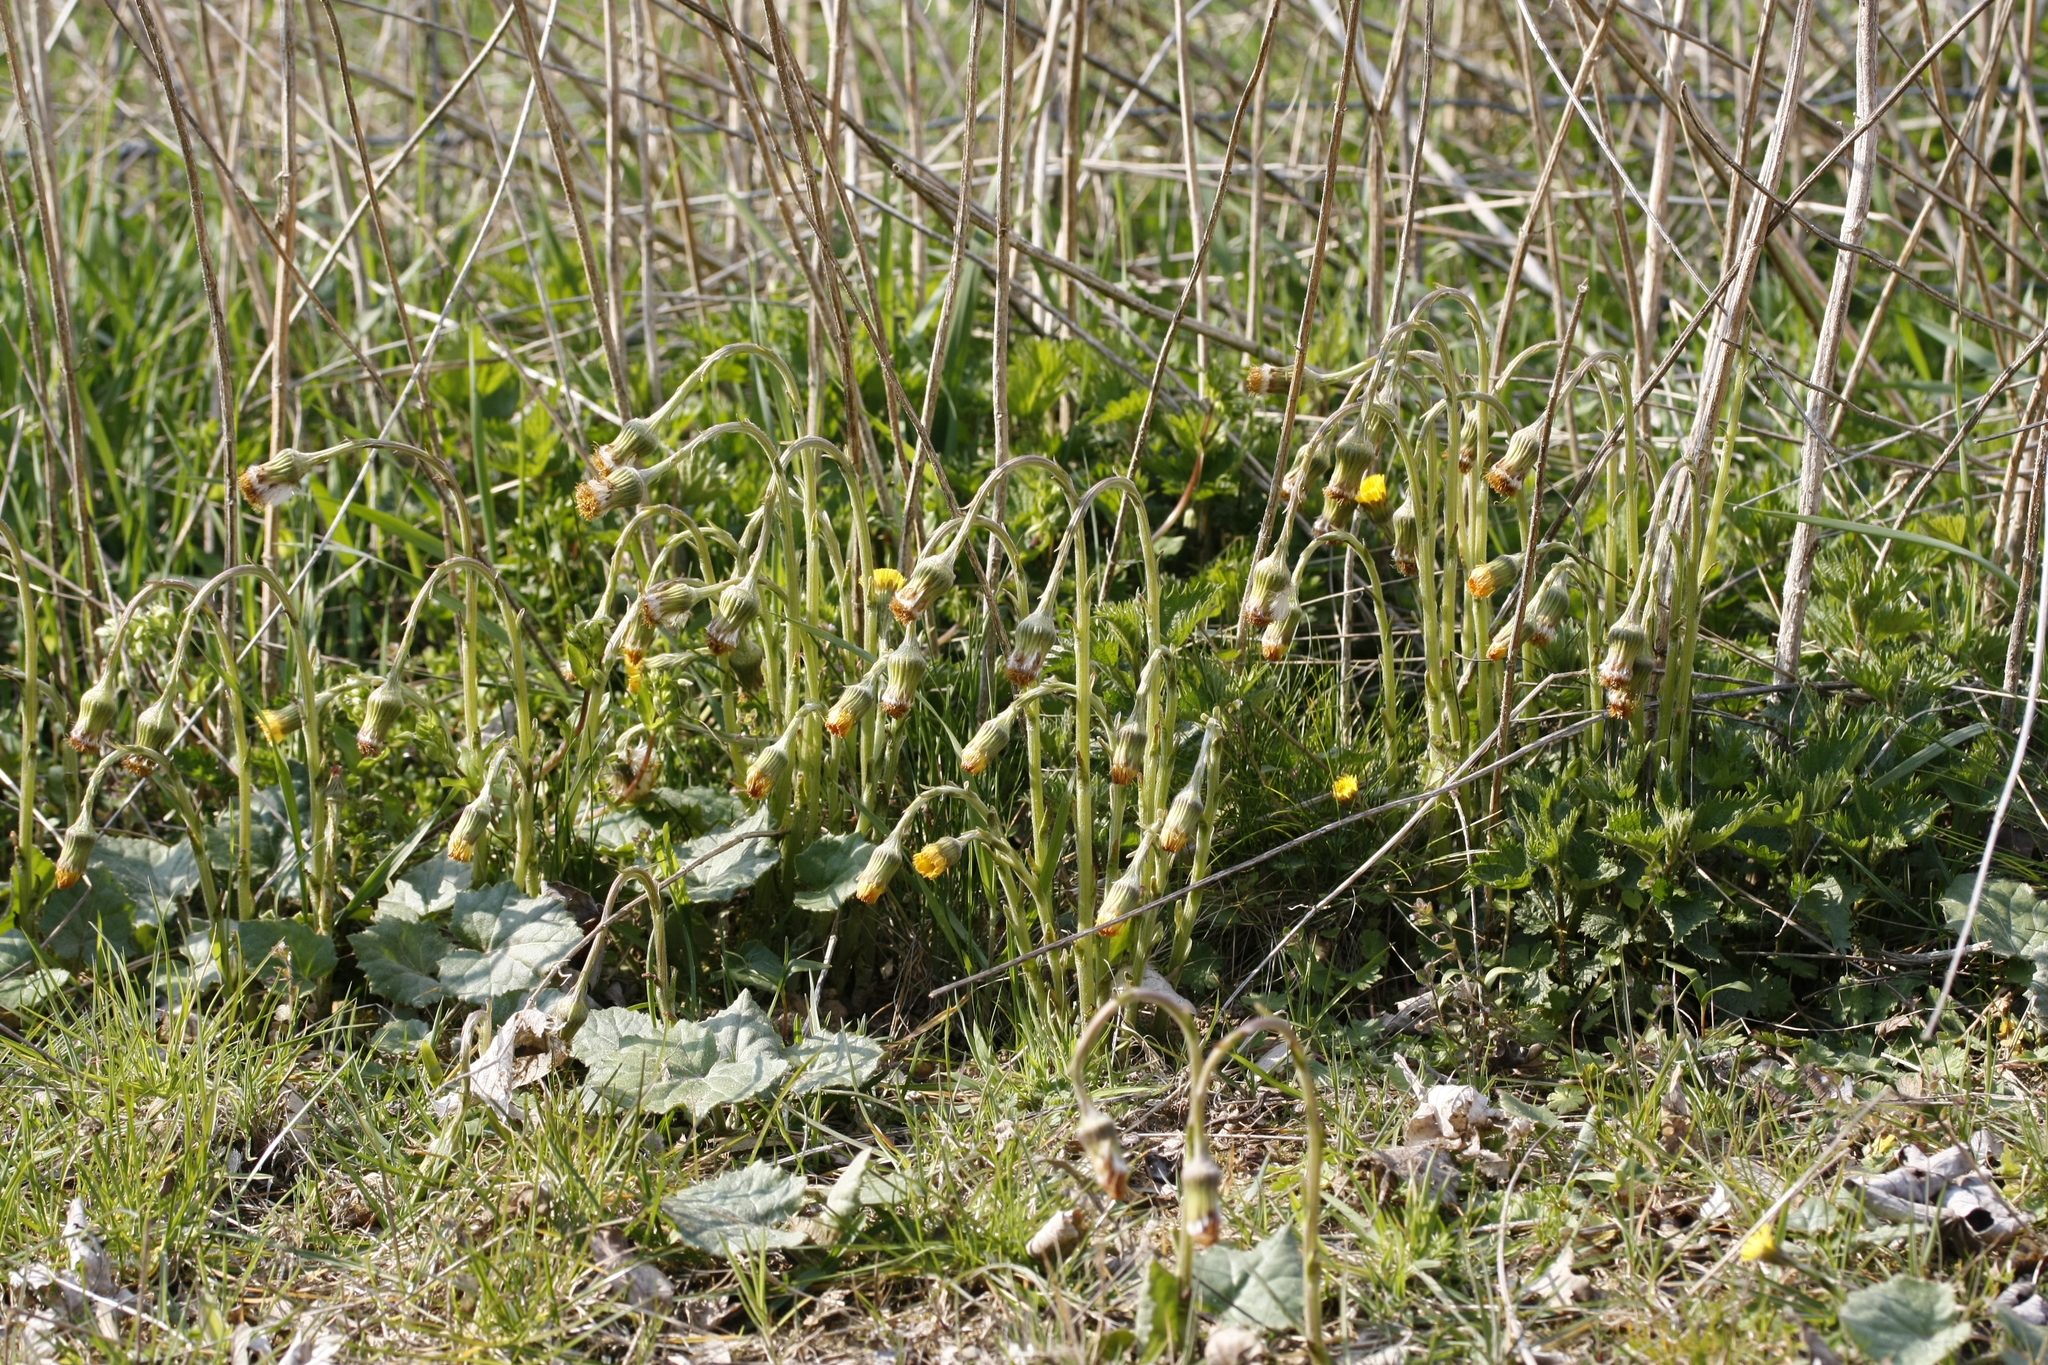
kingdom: Plantae
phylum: Tracheophyta
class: Magnoliopsida
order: Asterales
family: Asteraceae
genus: Tussilago
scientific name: Tussilago farfara
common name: Coltsfoot
